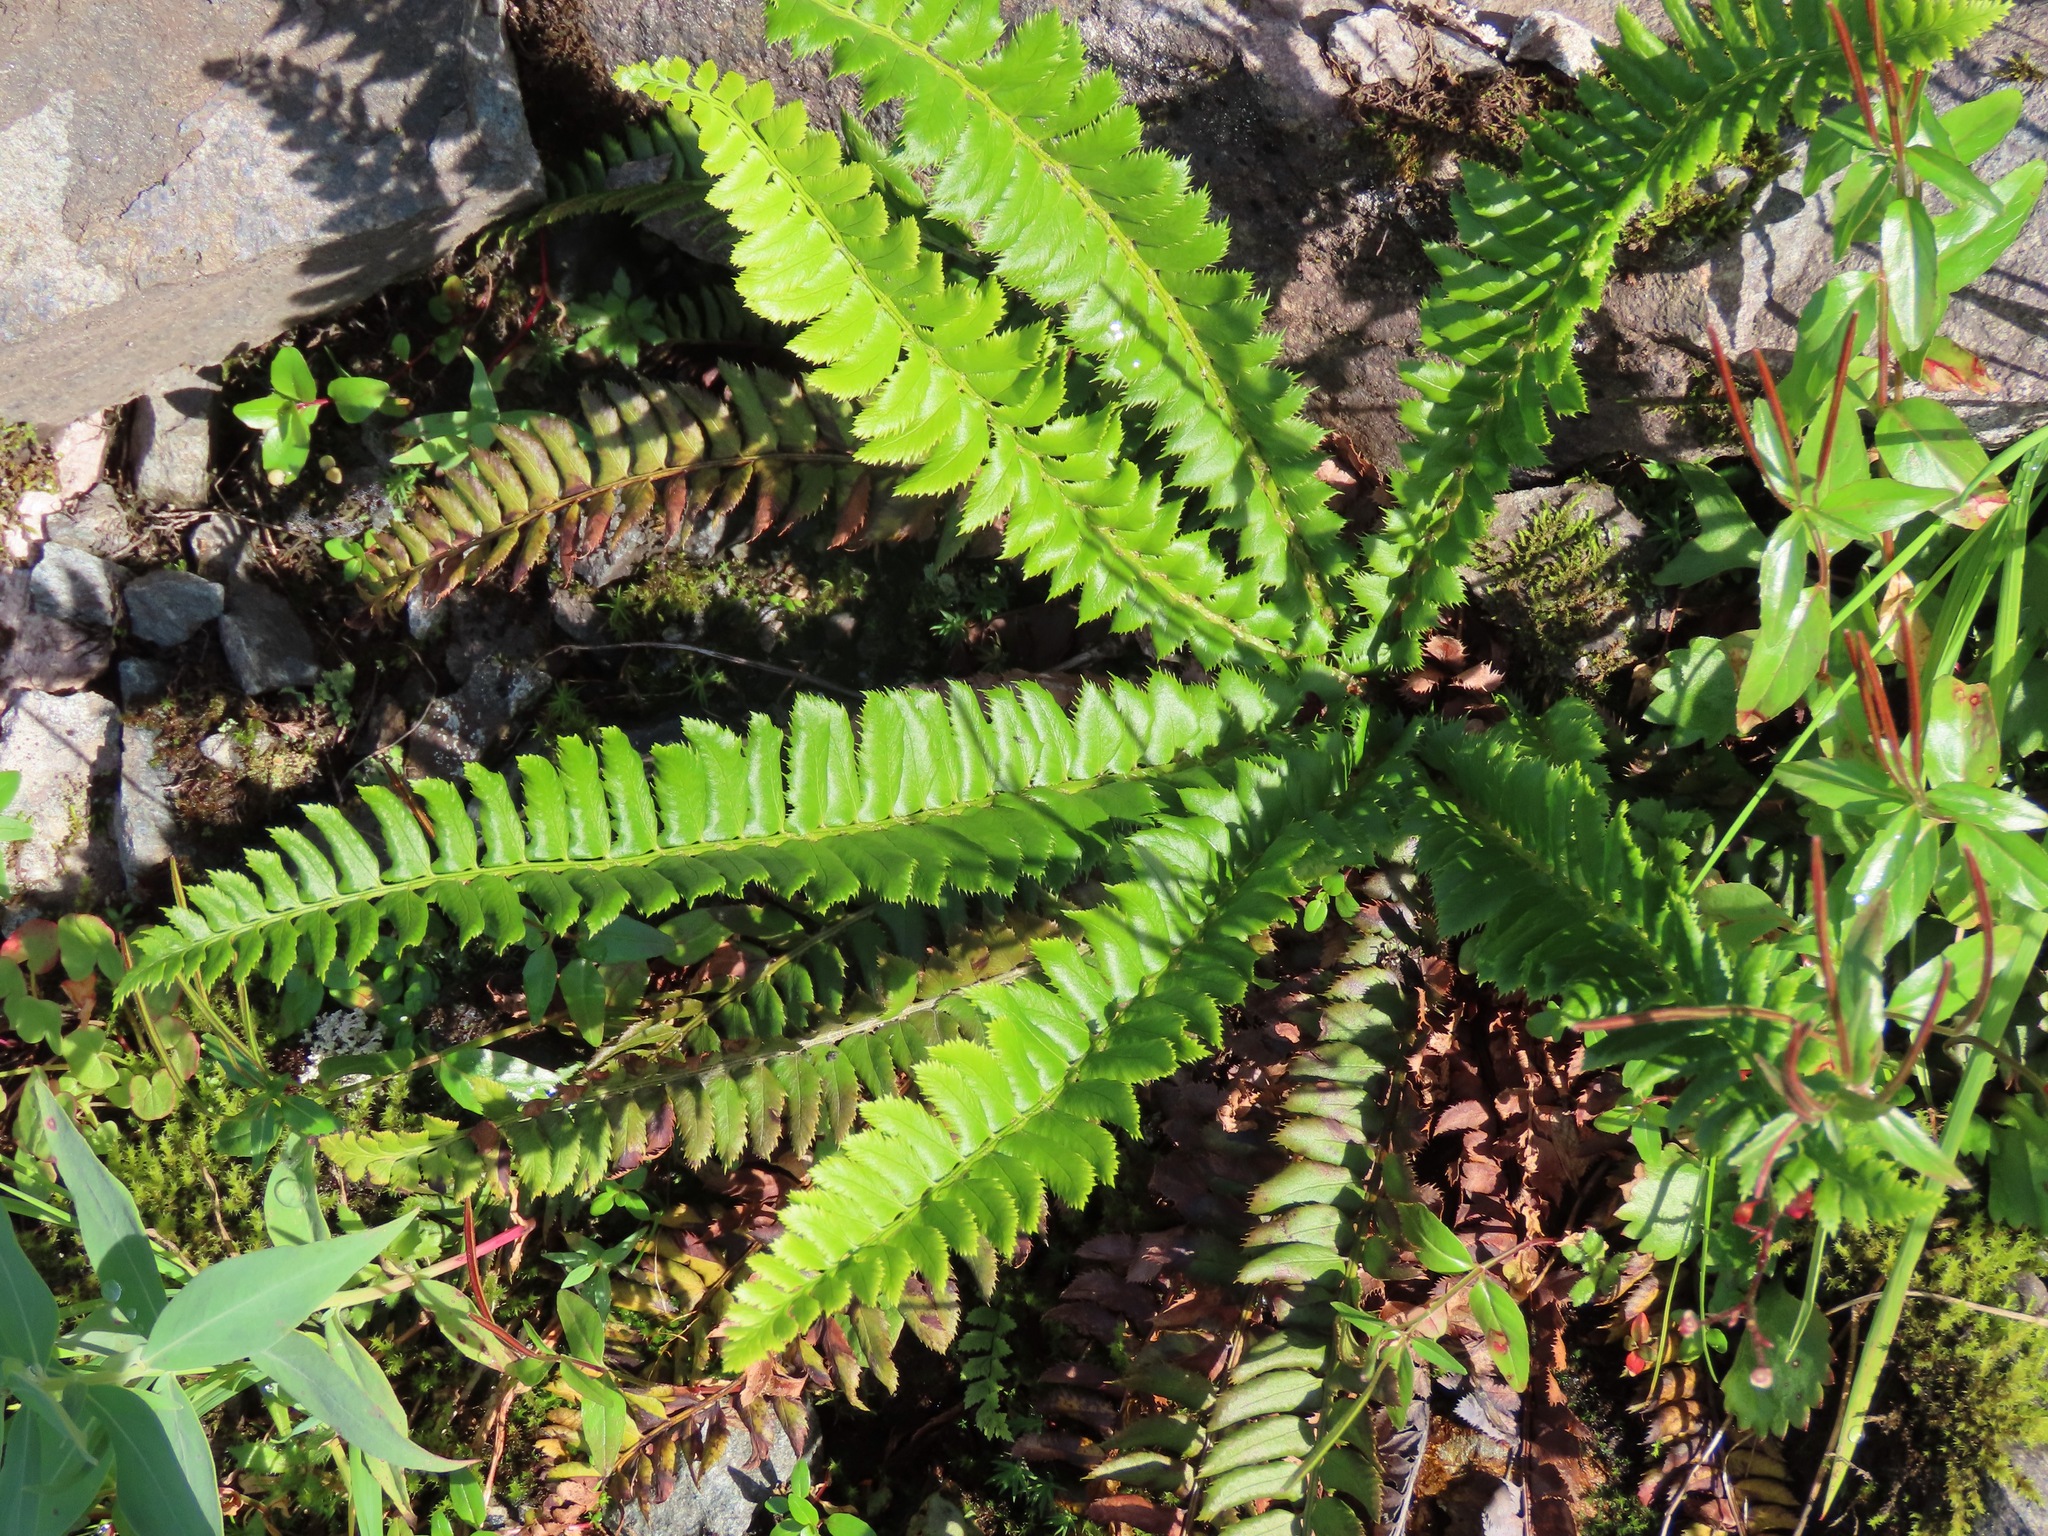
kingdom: Plantae
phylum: Tracheophyta
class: Polypodiopsida
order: Polypodiales
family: Dryopteridaceae
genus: Polystichum
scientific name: Polystichum lonchitis
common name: Holly fern
